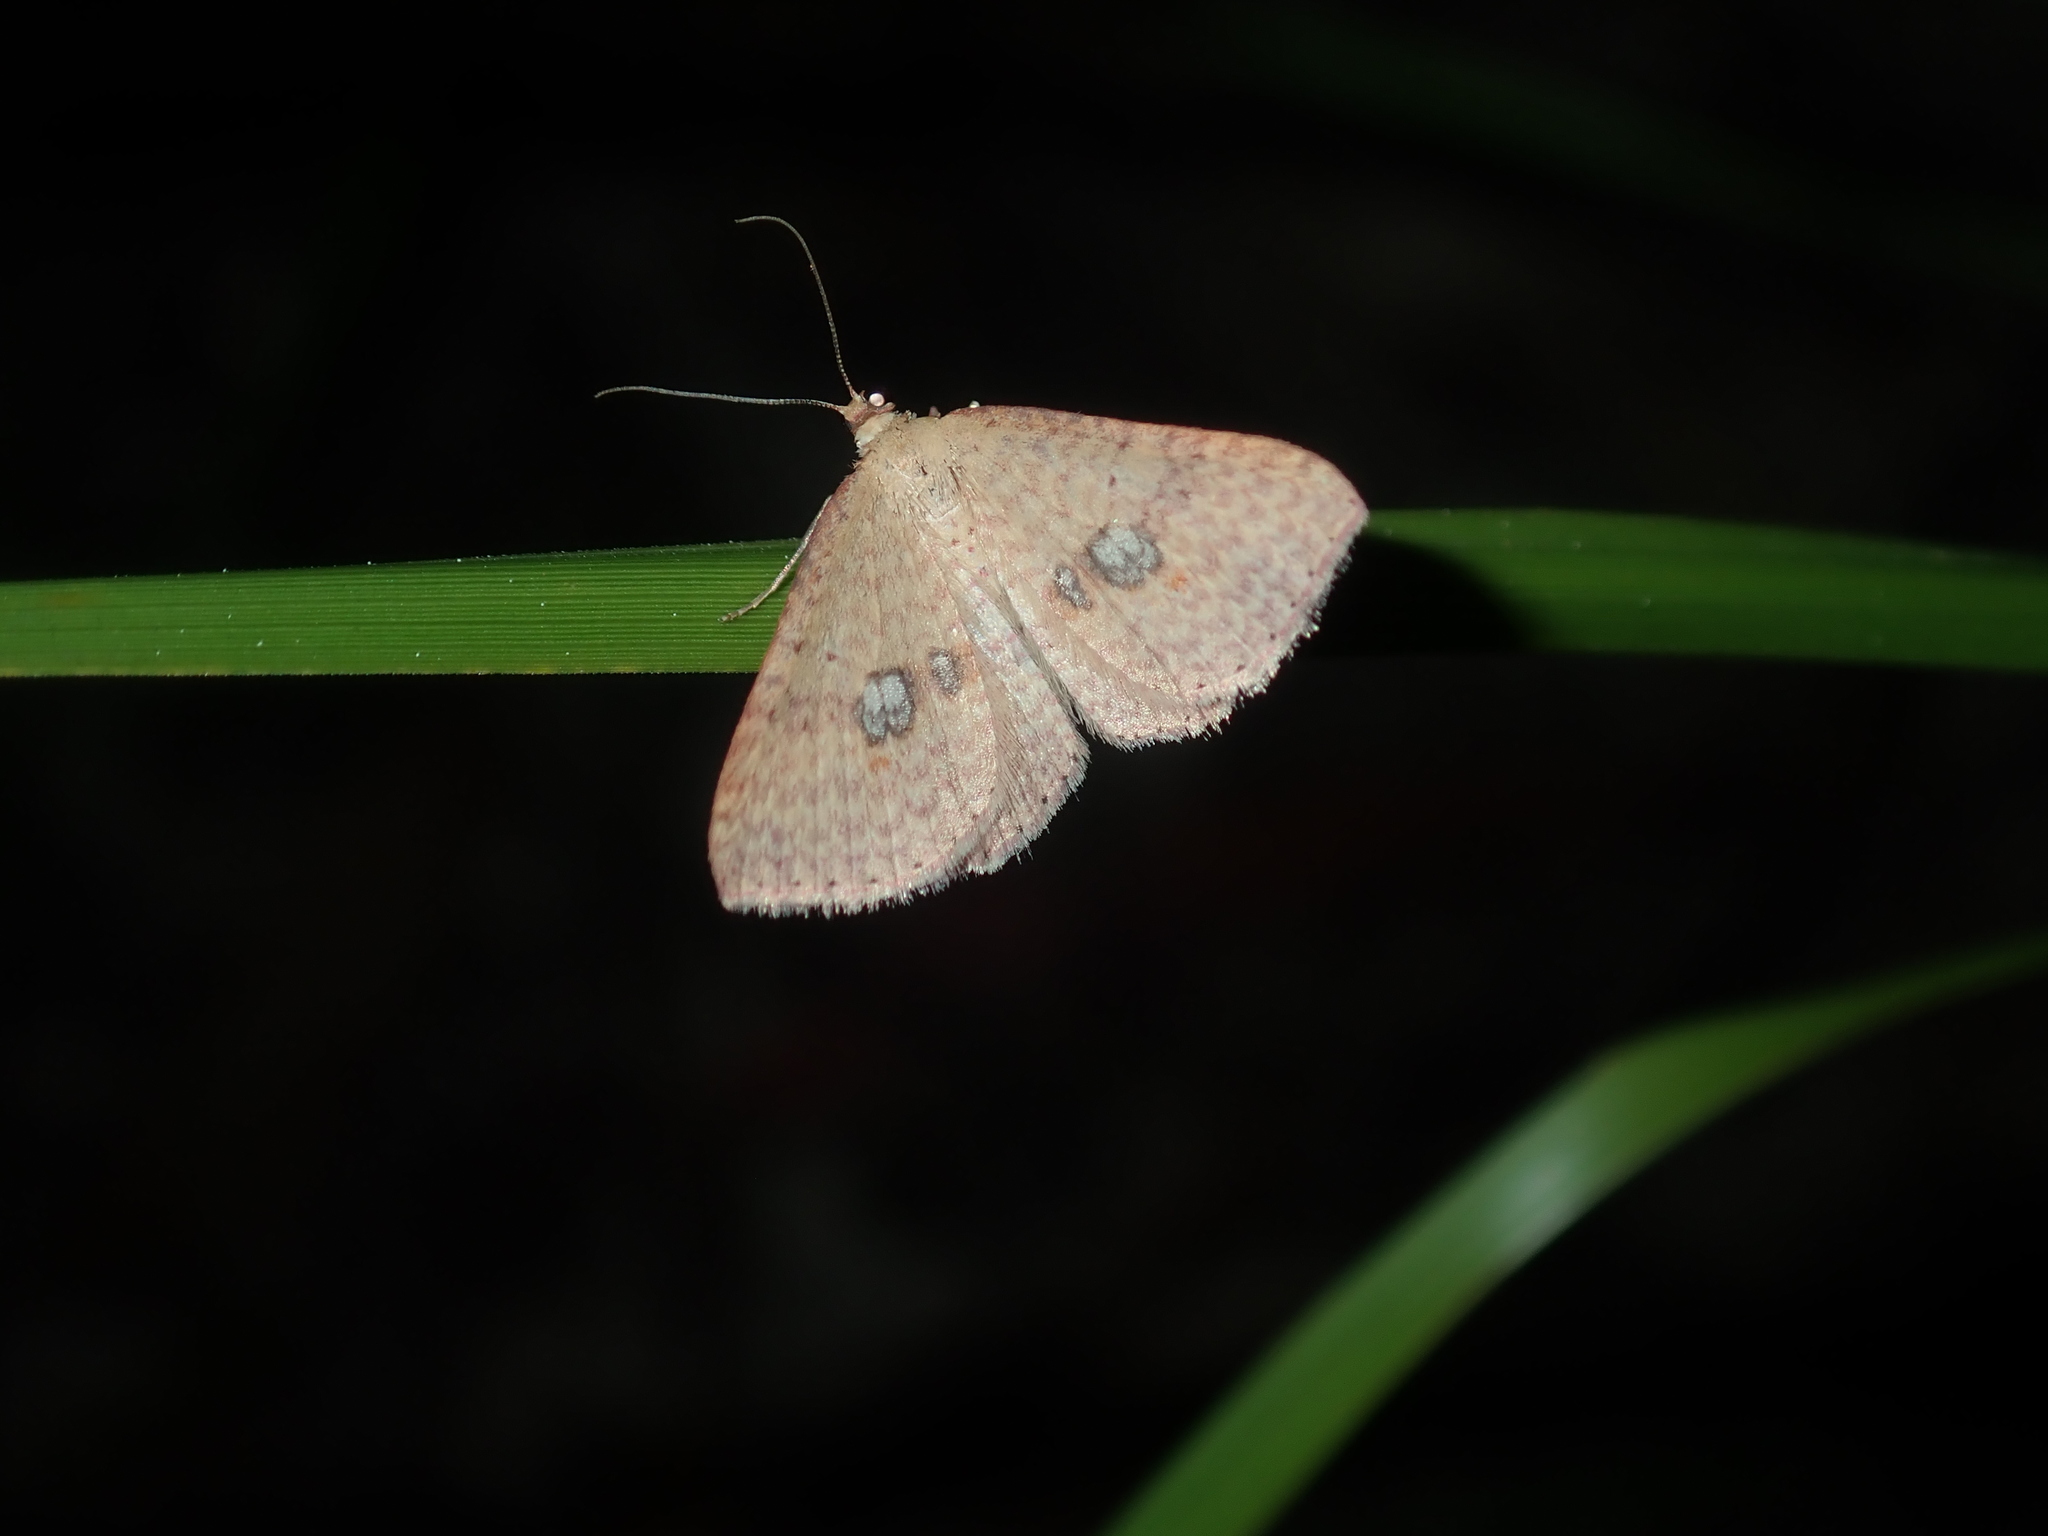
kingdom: Animalia
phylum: Arthropoda
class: Insecta
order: Lepidoptera
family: Geometridae
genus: Epicyme
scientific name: Epicyme rubropunctaria
